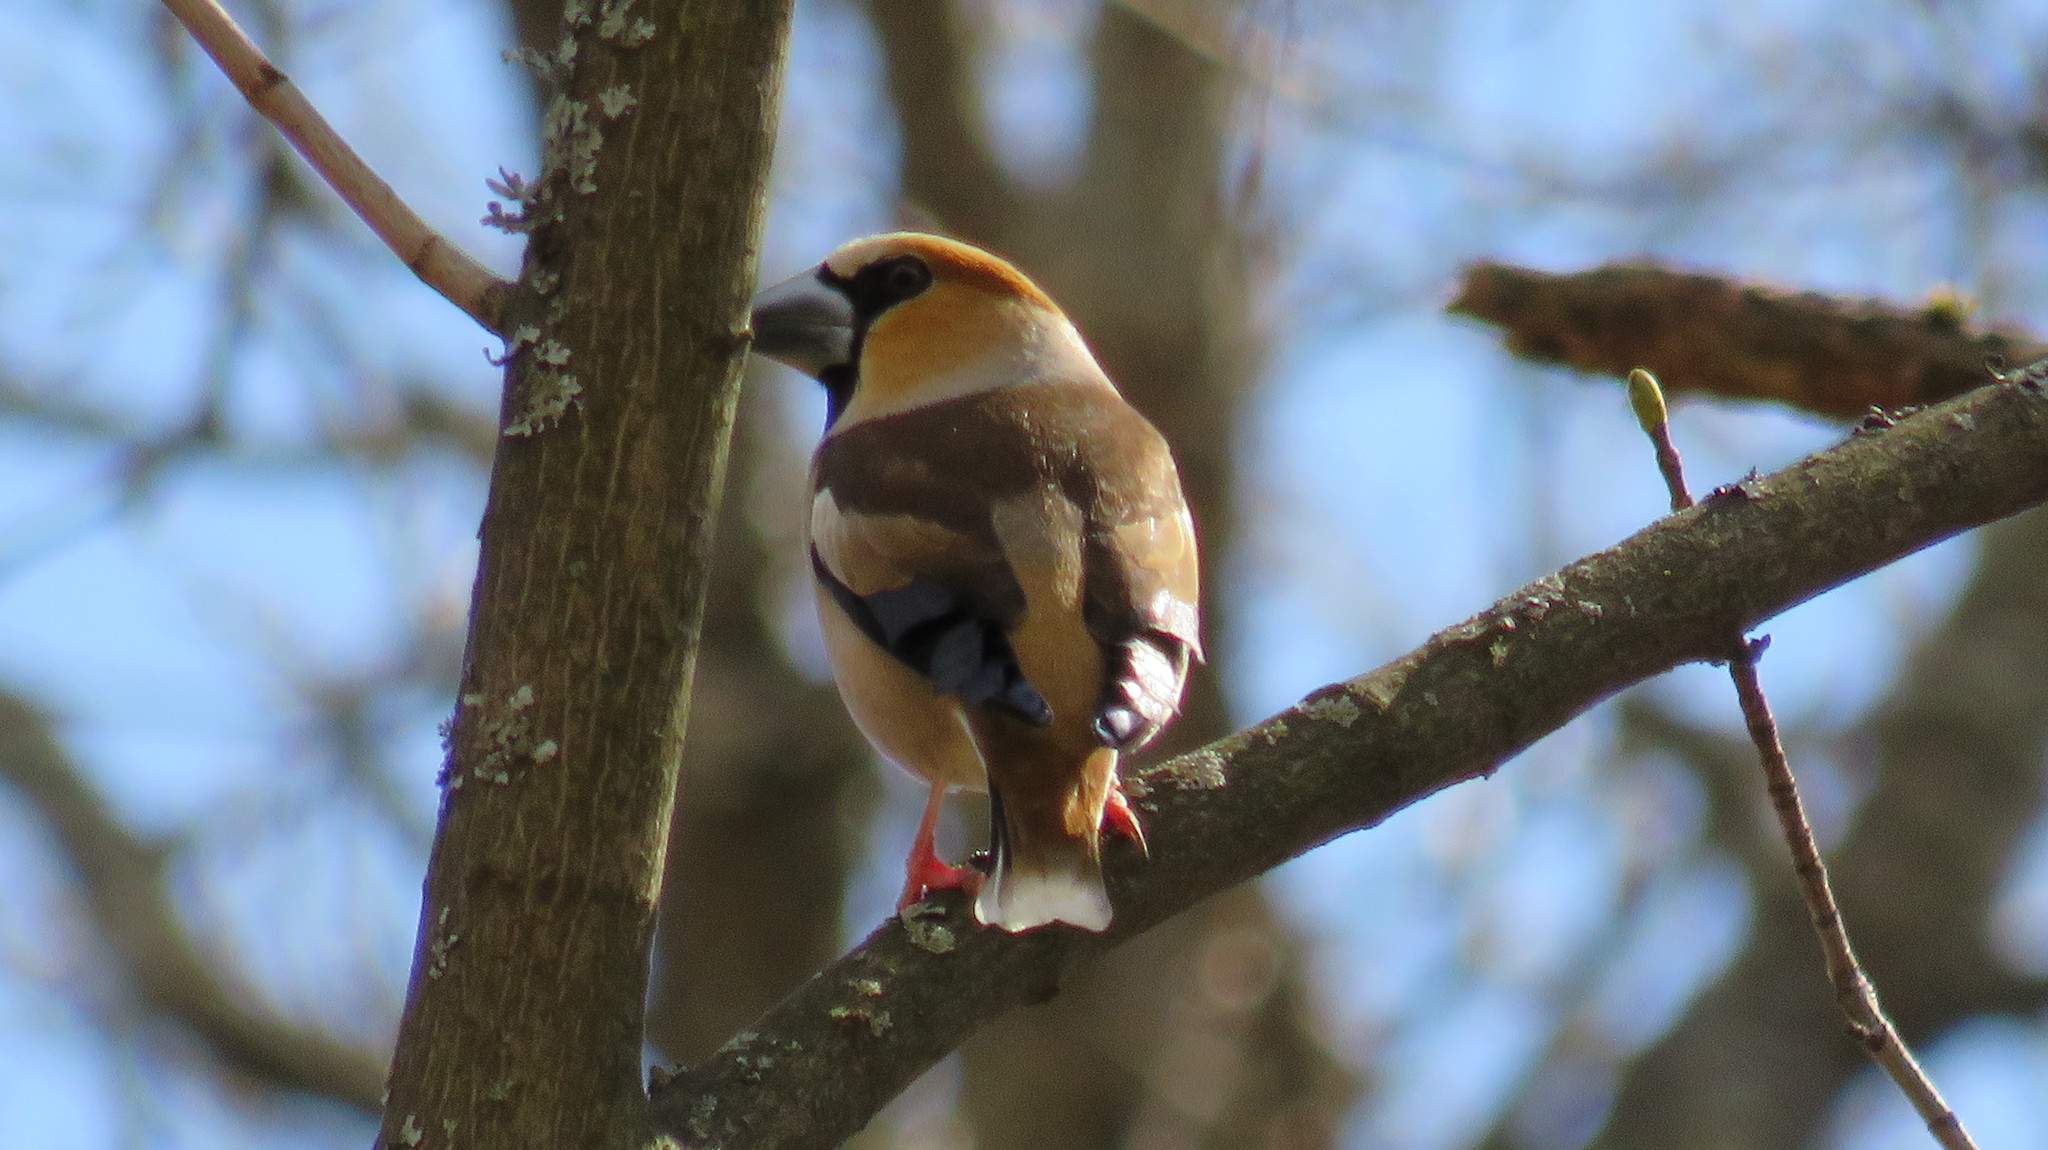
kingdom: Animalia
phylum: Chordata
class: Aves
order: Passeriformes
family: Fringillidae
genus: Coccothraustes
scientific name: Coccothraustes coccothraustes
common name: Hawfinch
